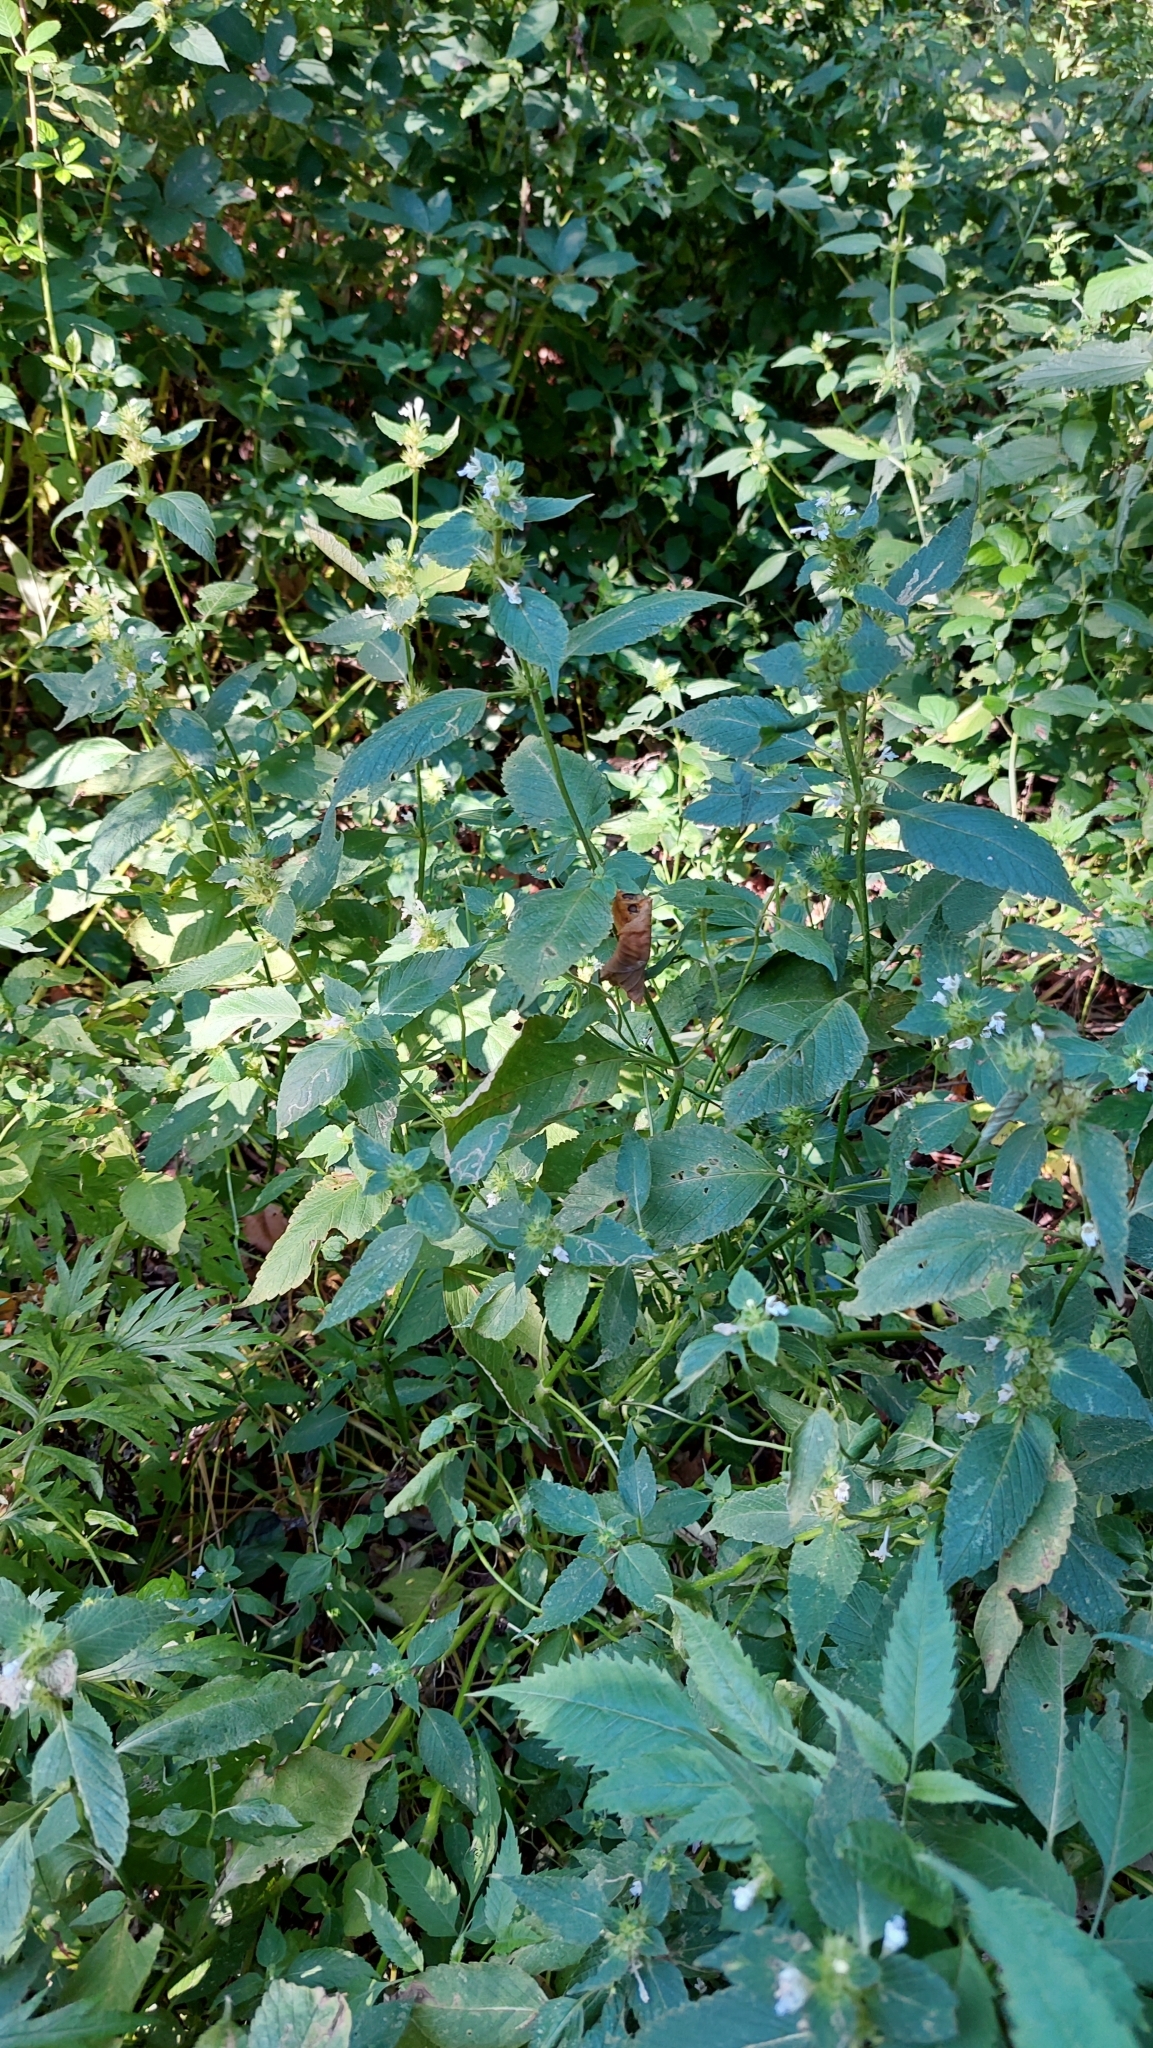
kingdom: Plantae
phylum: Tracheophyta
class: Magnoliopsida
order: Lamiales
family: Lamiaceae
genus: Galeopsis
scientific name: Galeopsis bifida
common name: Bifid hemp-nettle
